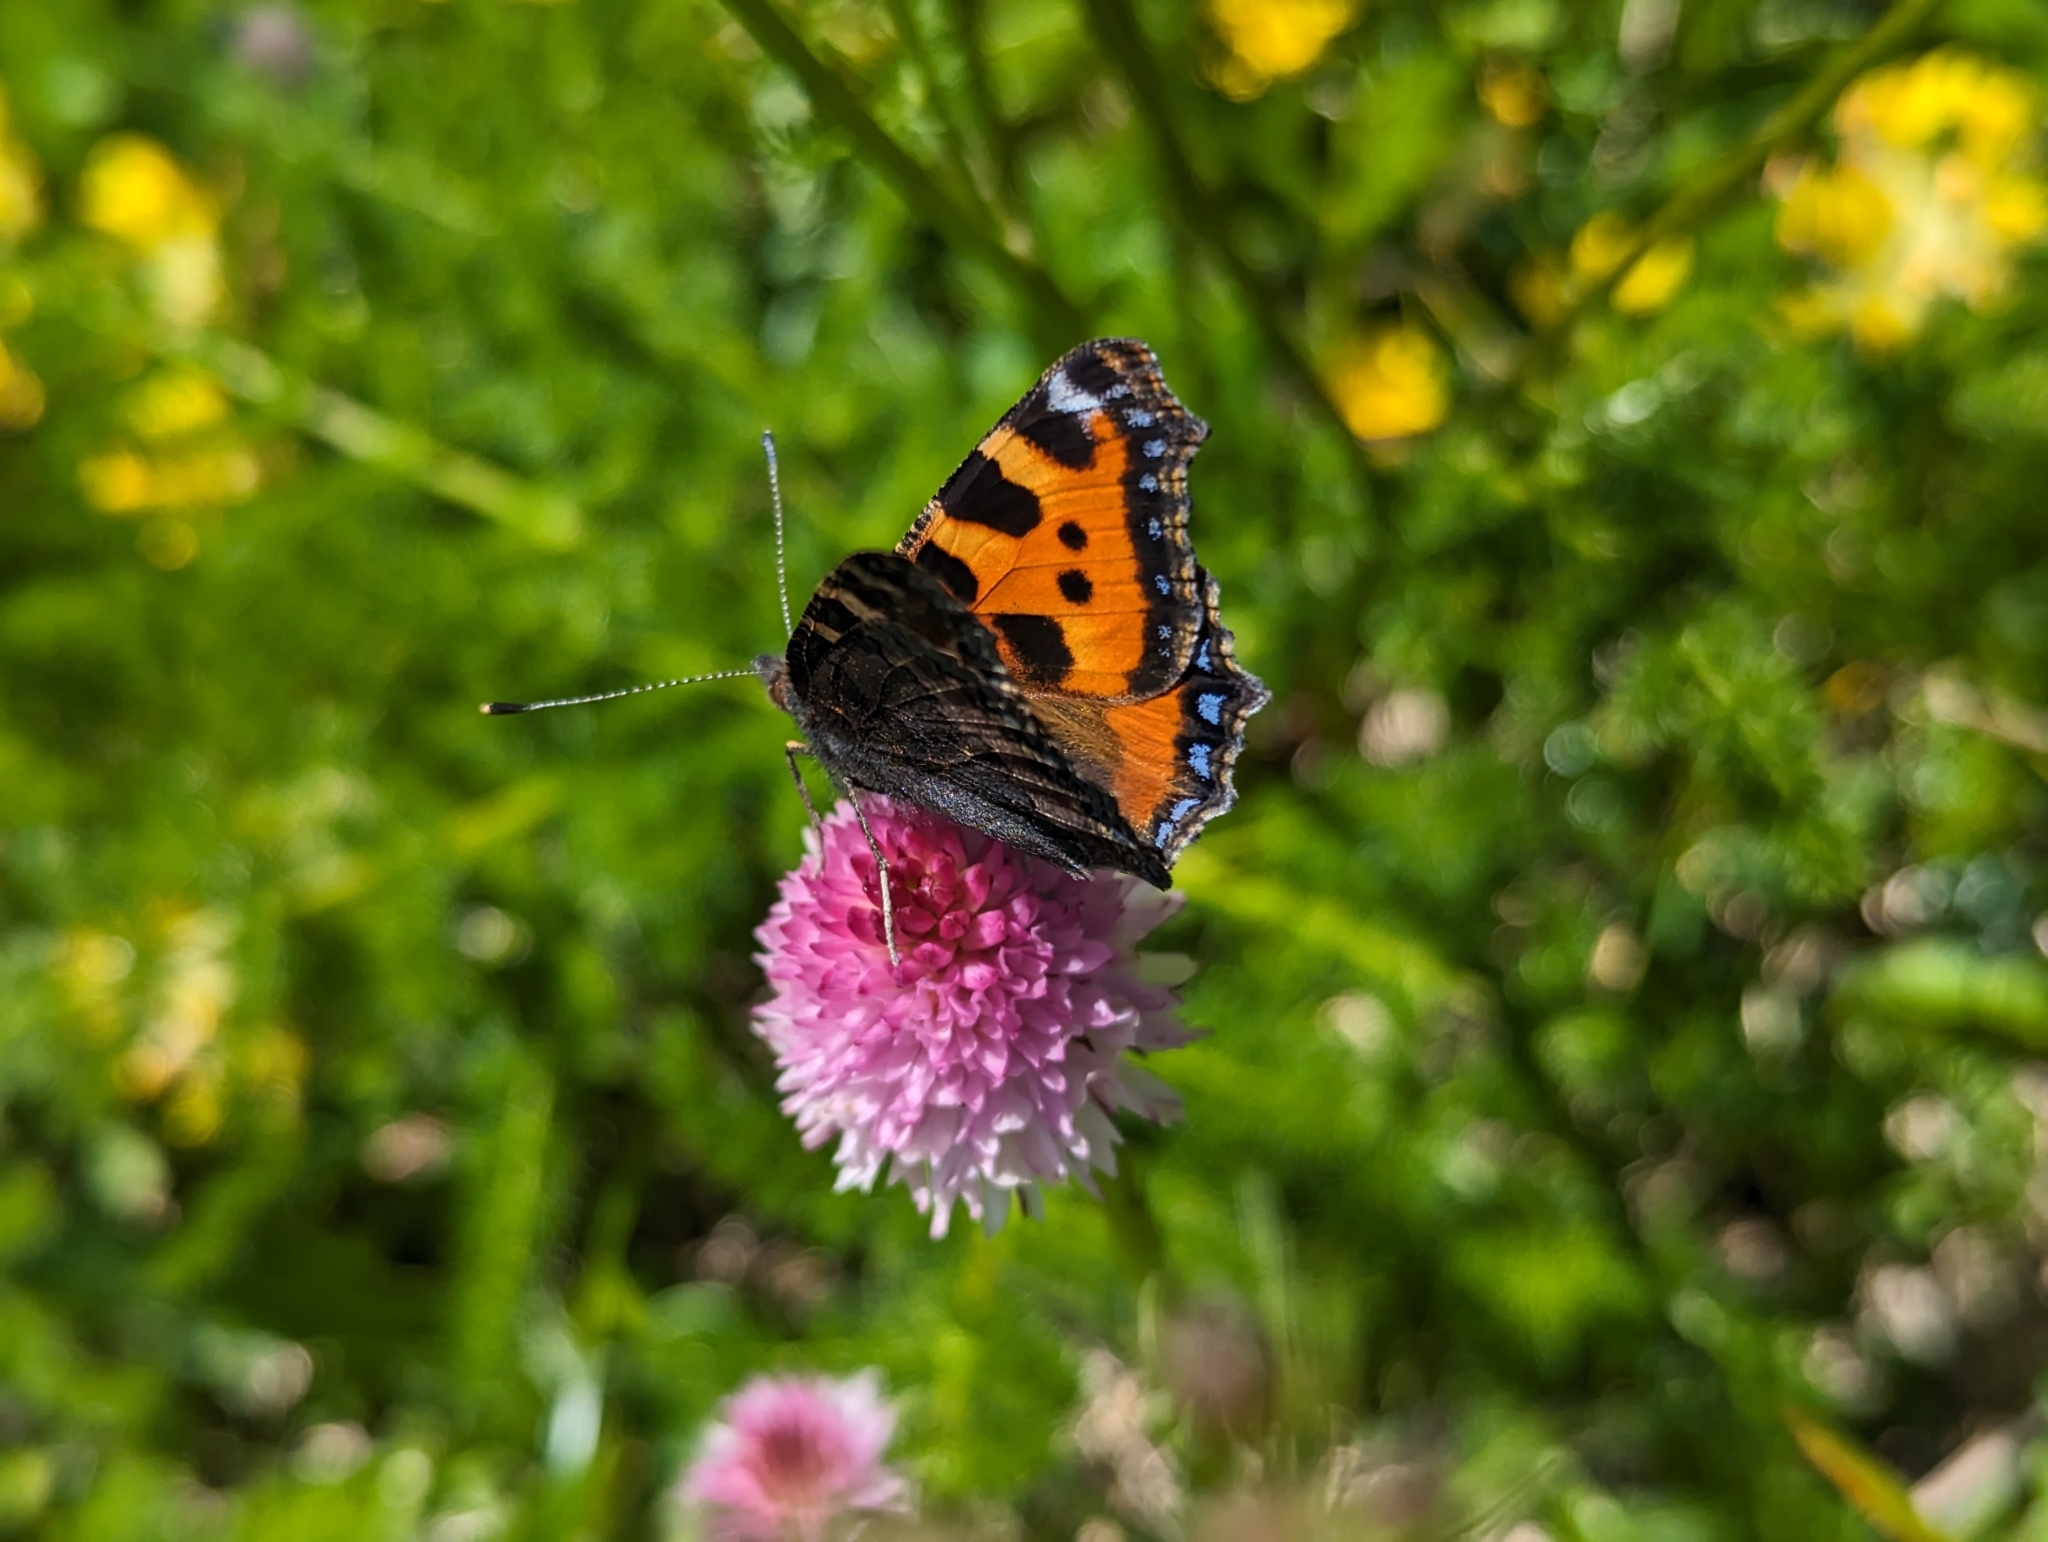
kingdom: Animalia
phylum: Arthropoda
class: Insecta
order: Lepidoptera
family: Nymphalidae
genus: Aglais
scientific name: Aglais urticae
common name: Small tortoiseshell
